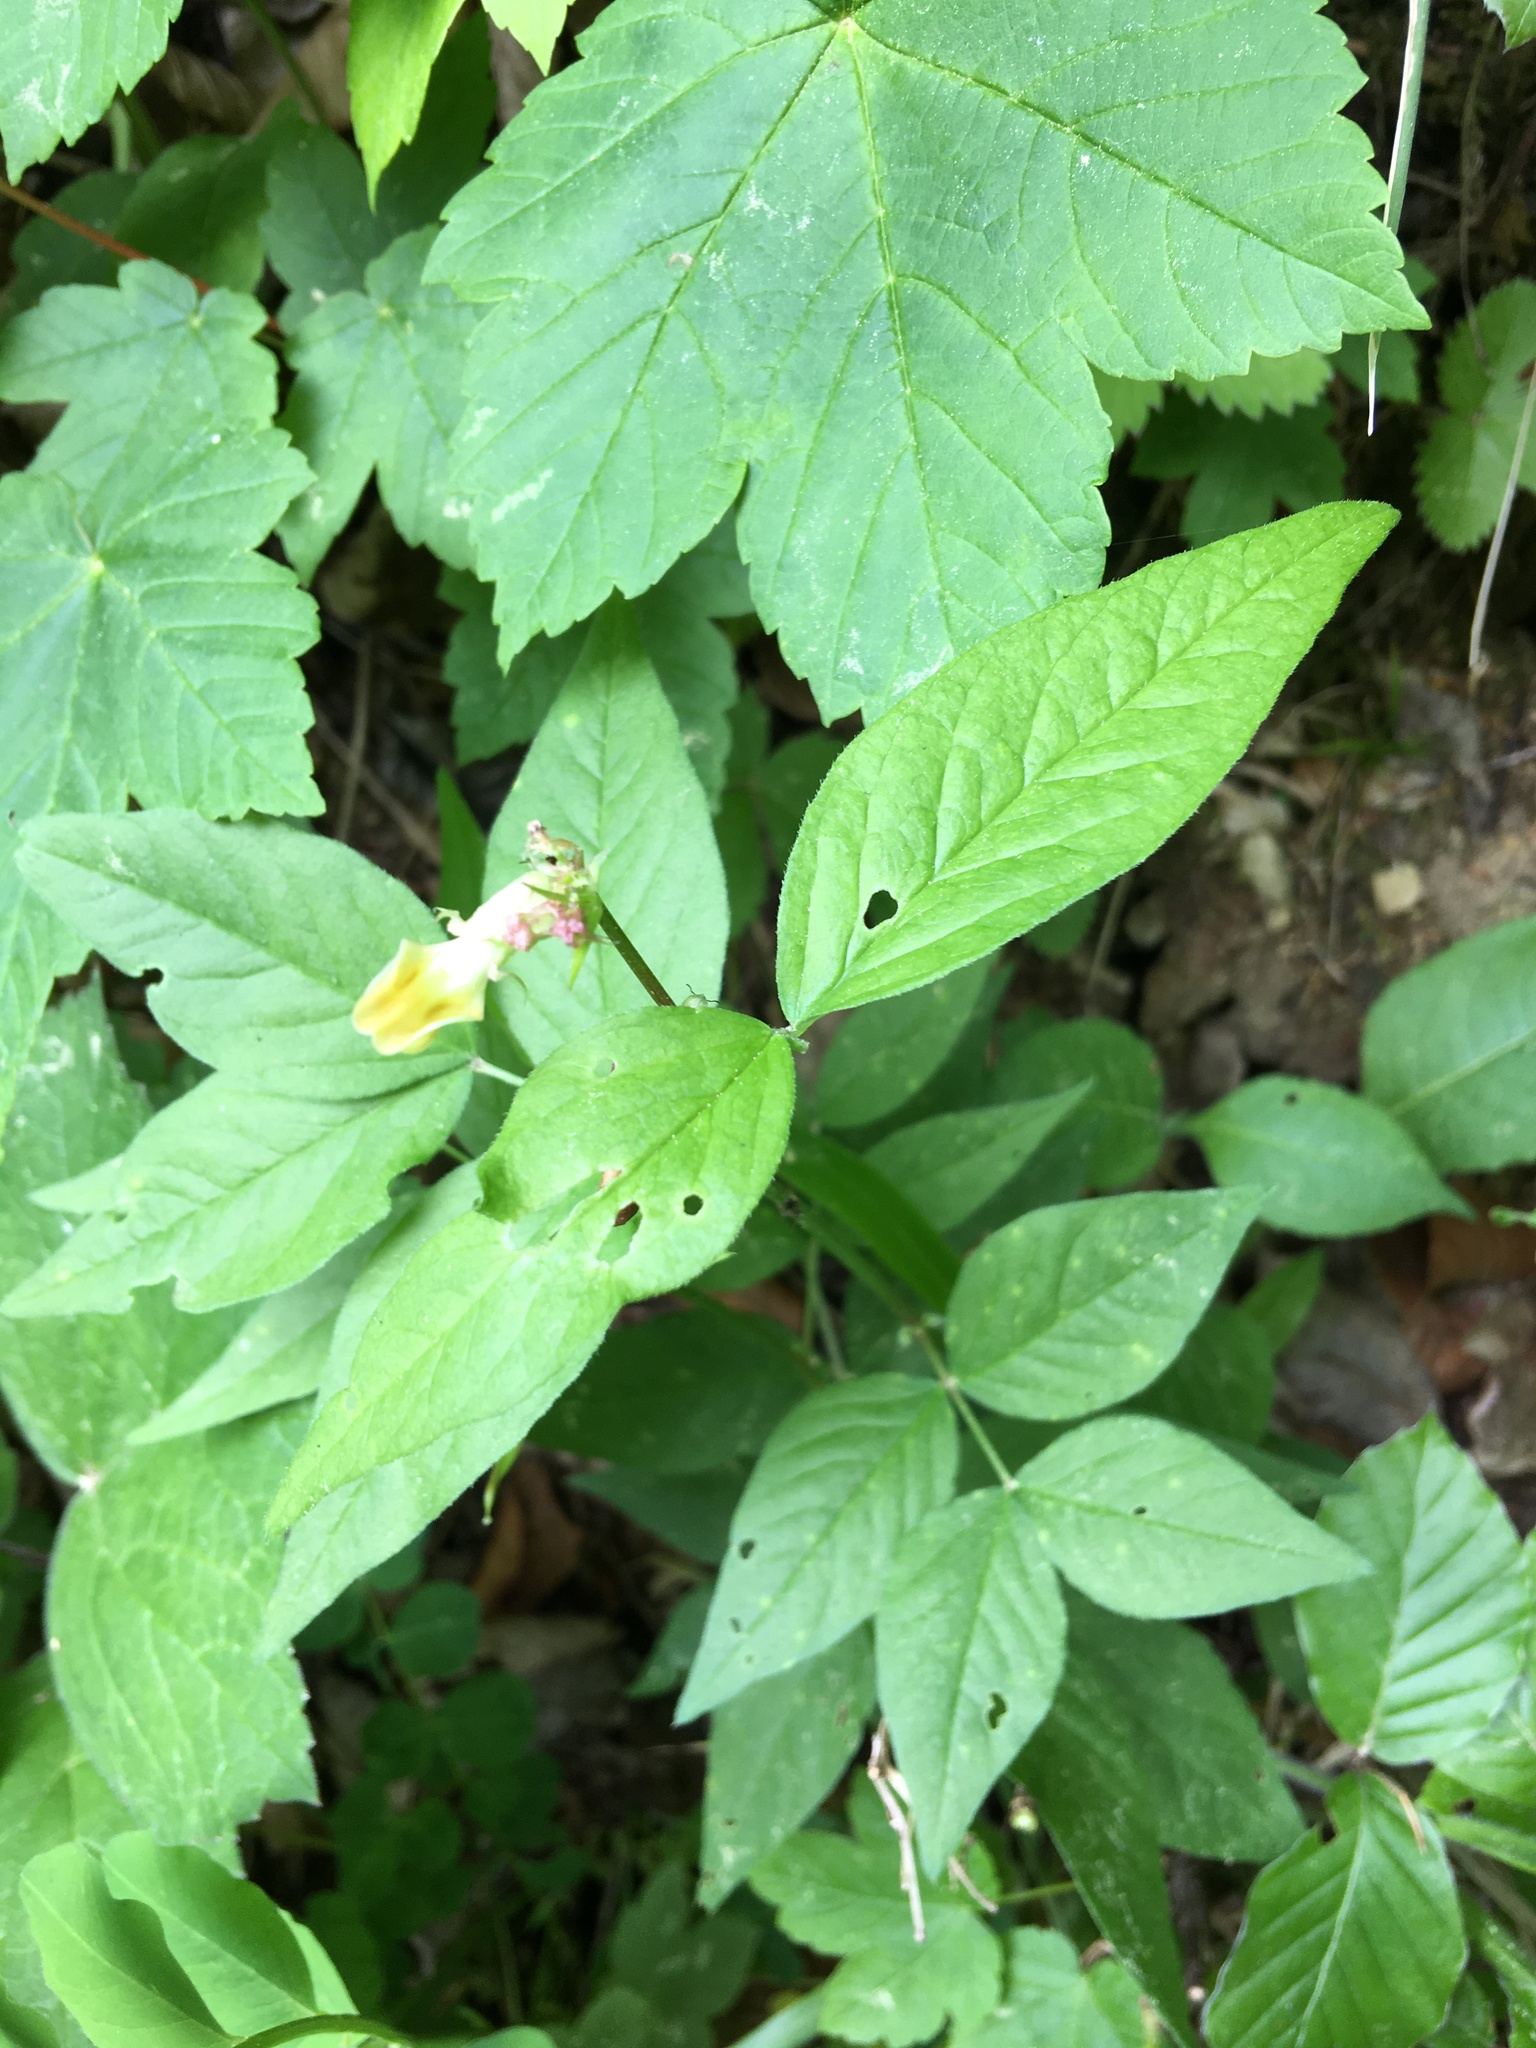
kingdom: Plantae
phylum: Tracheophyta
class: Magnoliopsida
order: Fabales
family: Fabaceae
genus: Vicia
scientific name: Vicia oroboides
